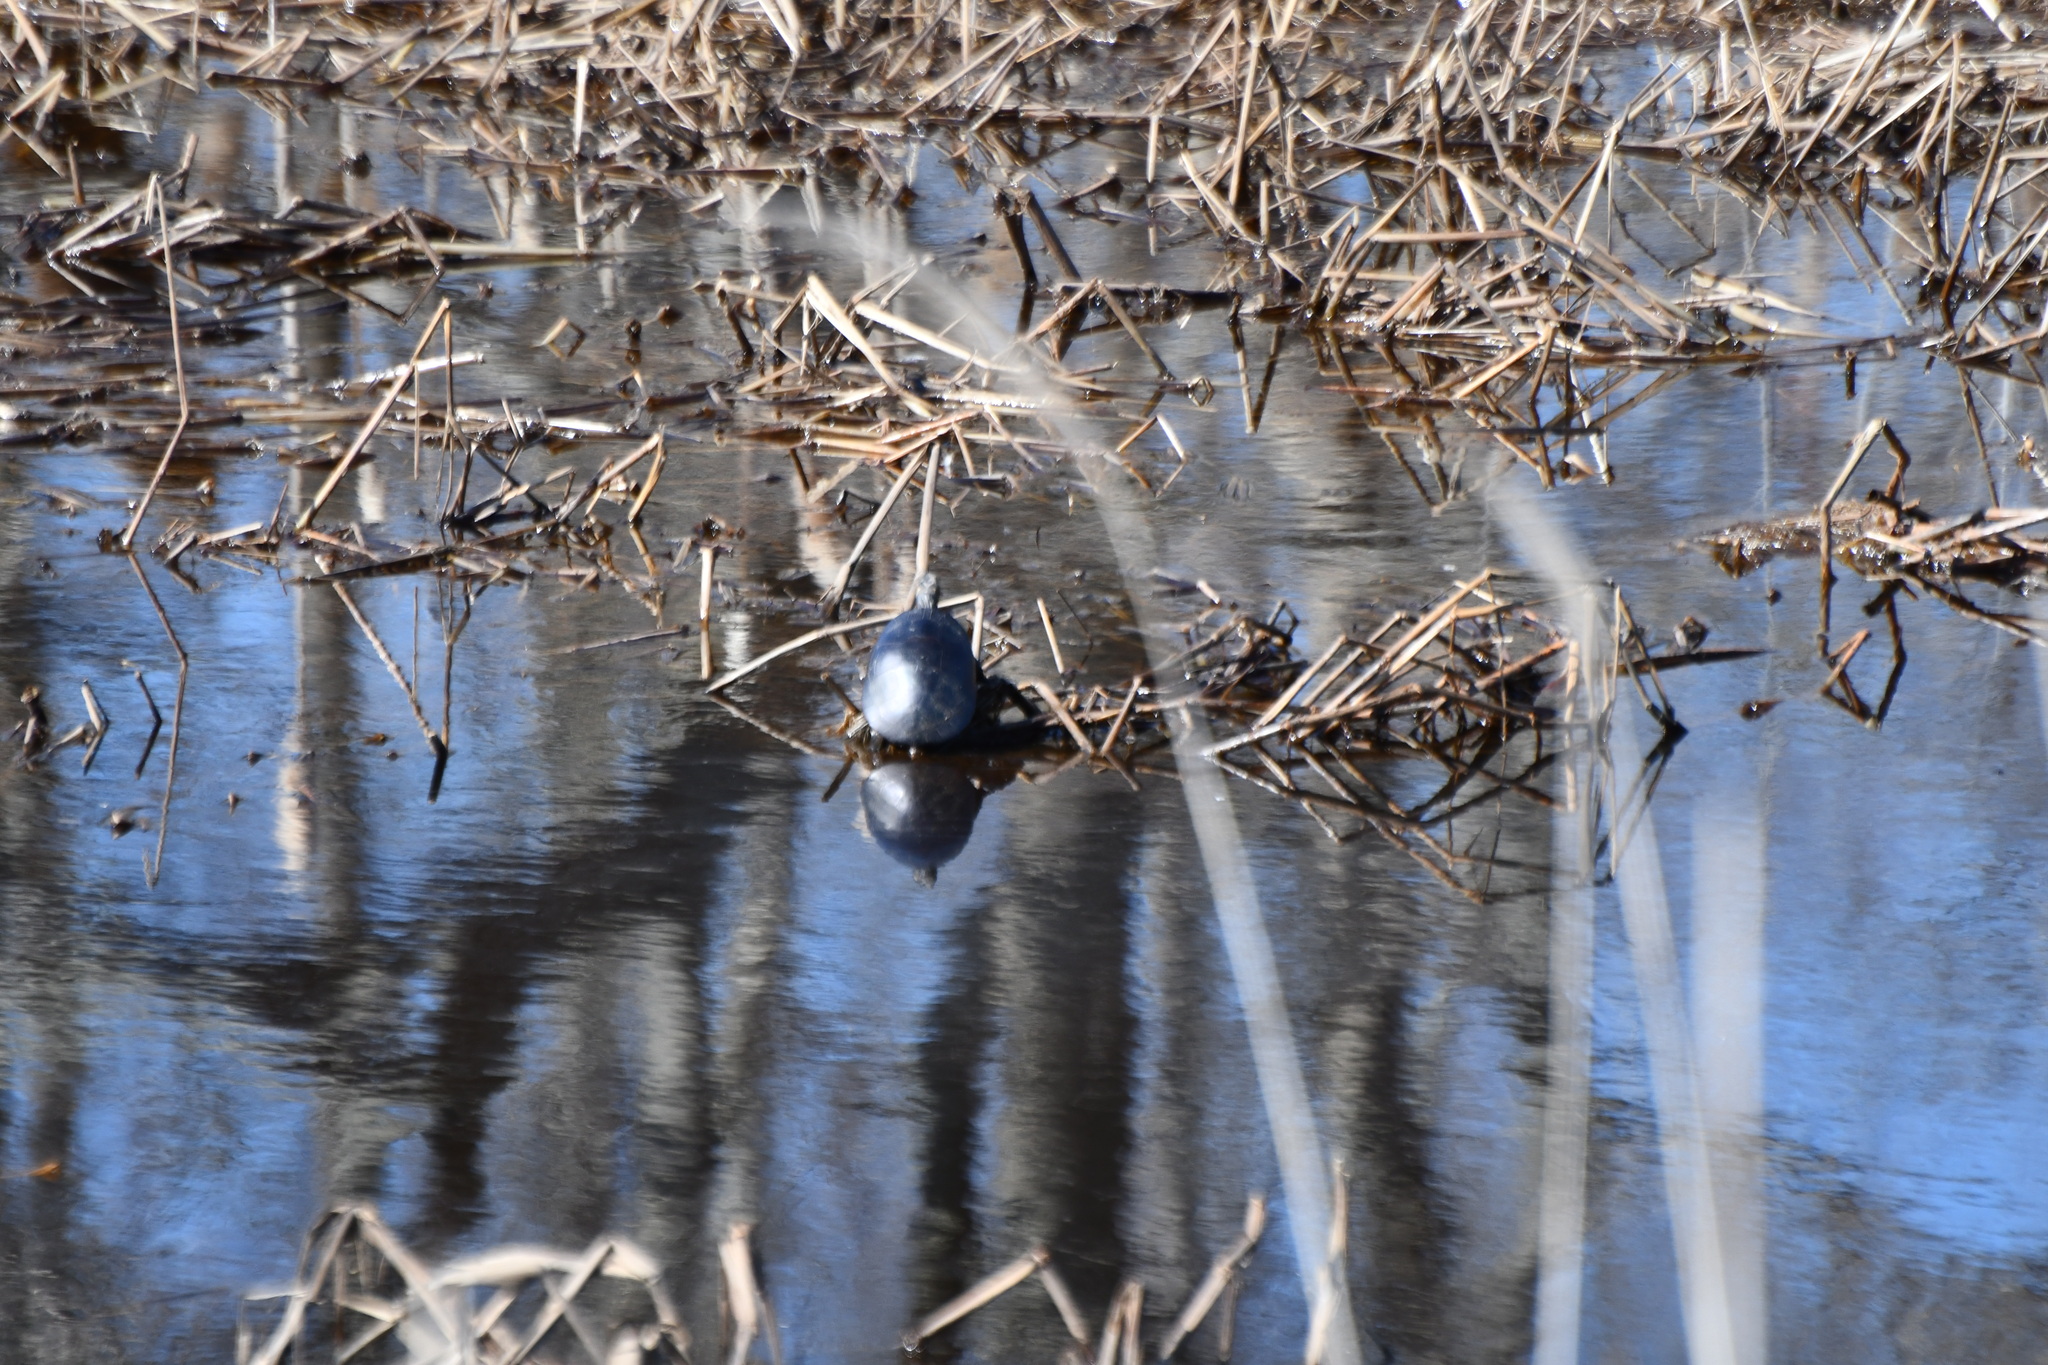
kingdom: Animalia
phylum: Chordata
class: Testudines
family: Emydidae
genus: Chrysemys
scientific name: Chrysemys picta
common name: Painted turtle
